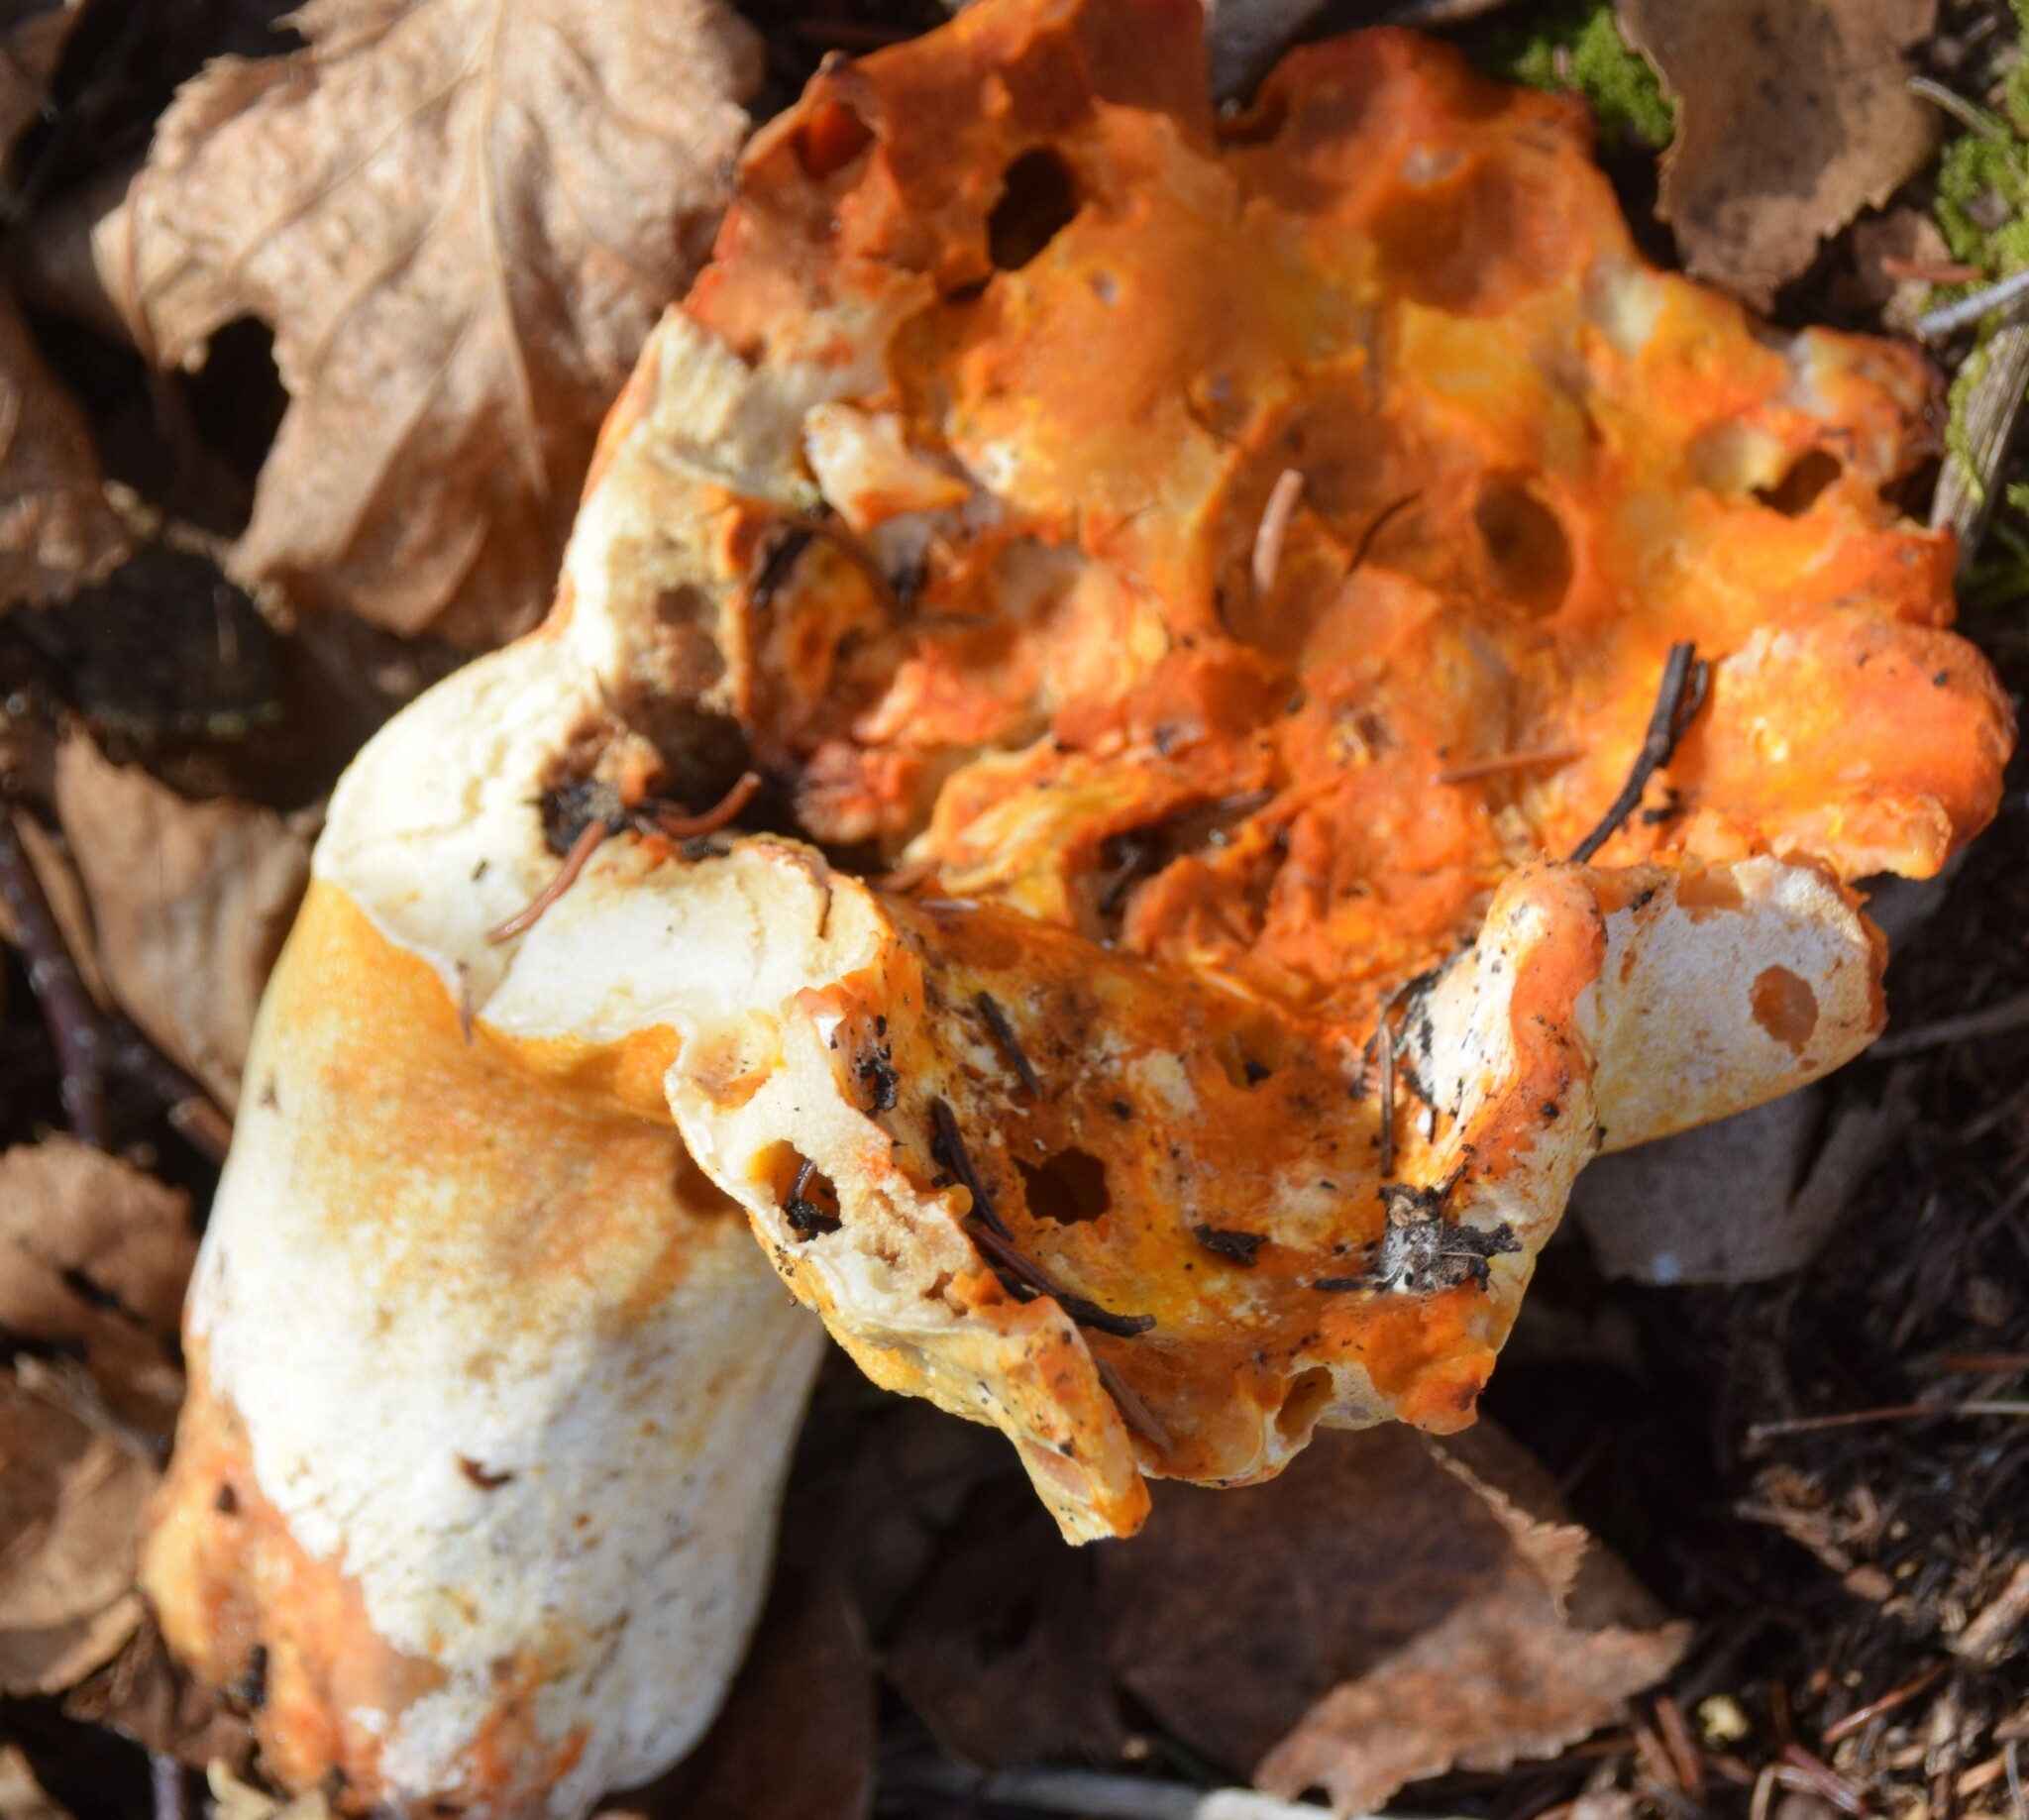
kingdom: Fungi
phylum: Ascomycota
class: Sordariomycetes
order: Hypocreales
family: Hypocreaceae
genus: Hypomyces
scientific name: Hypomyces lactifluorum
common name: Lobster mushroom
